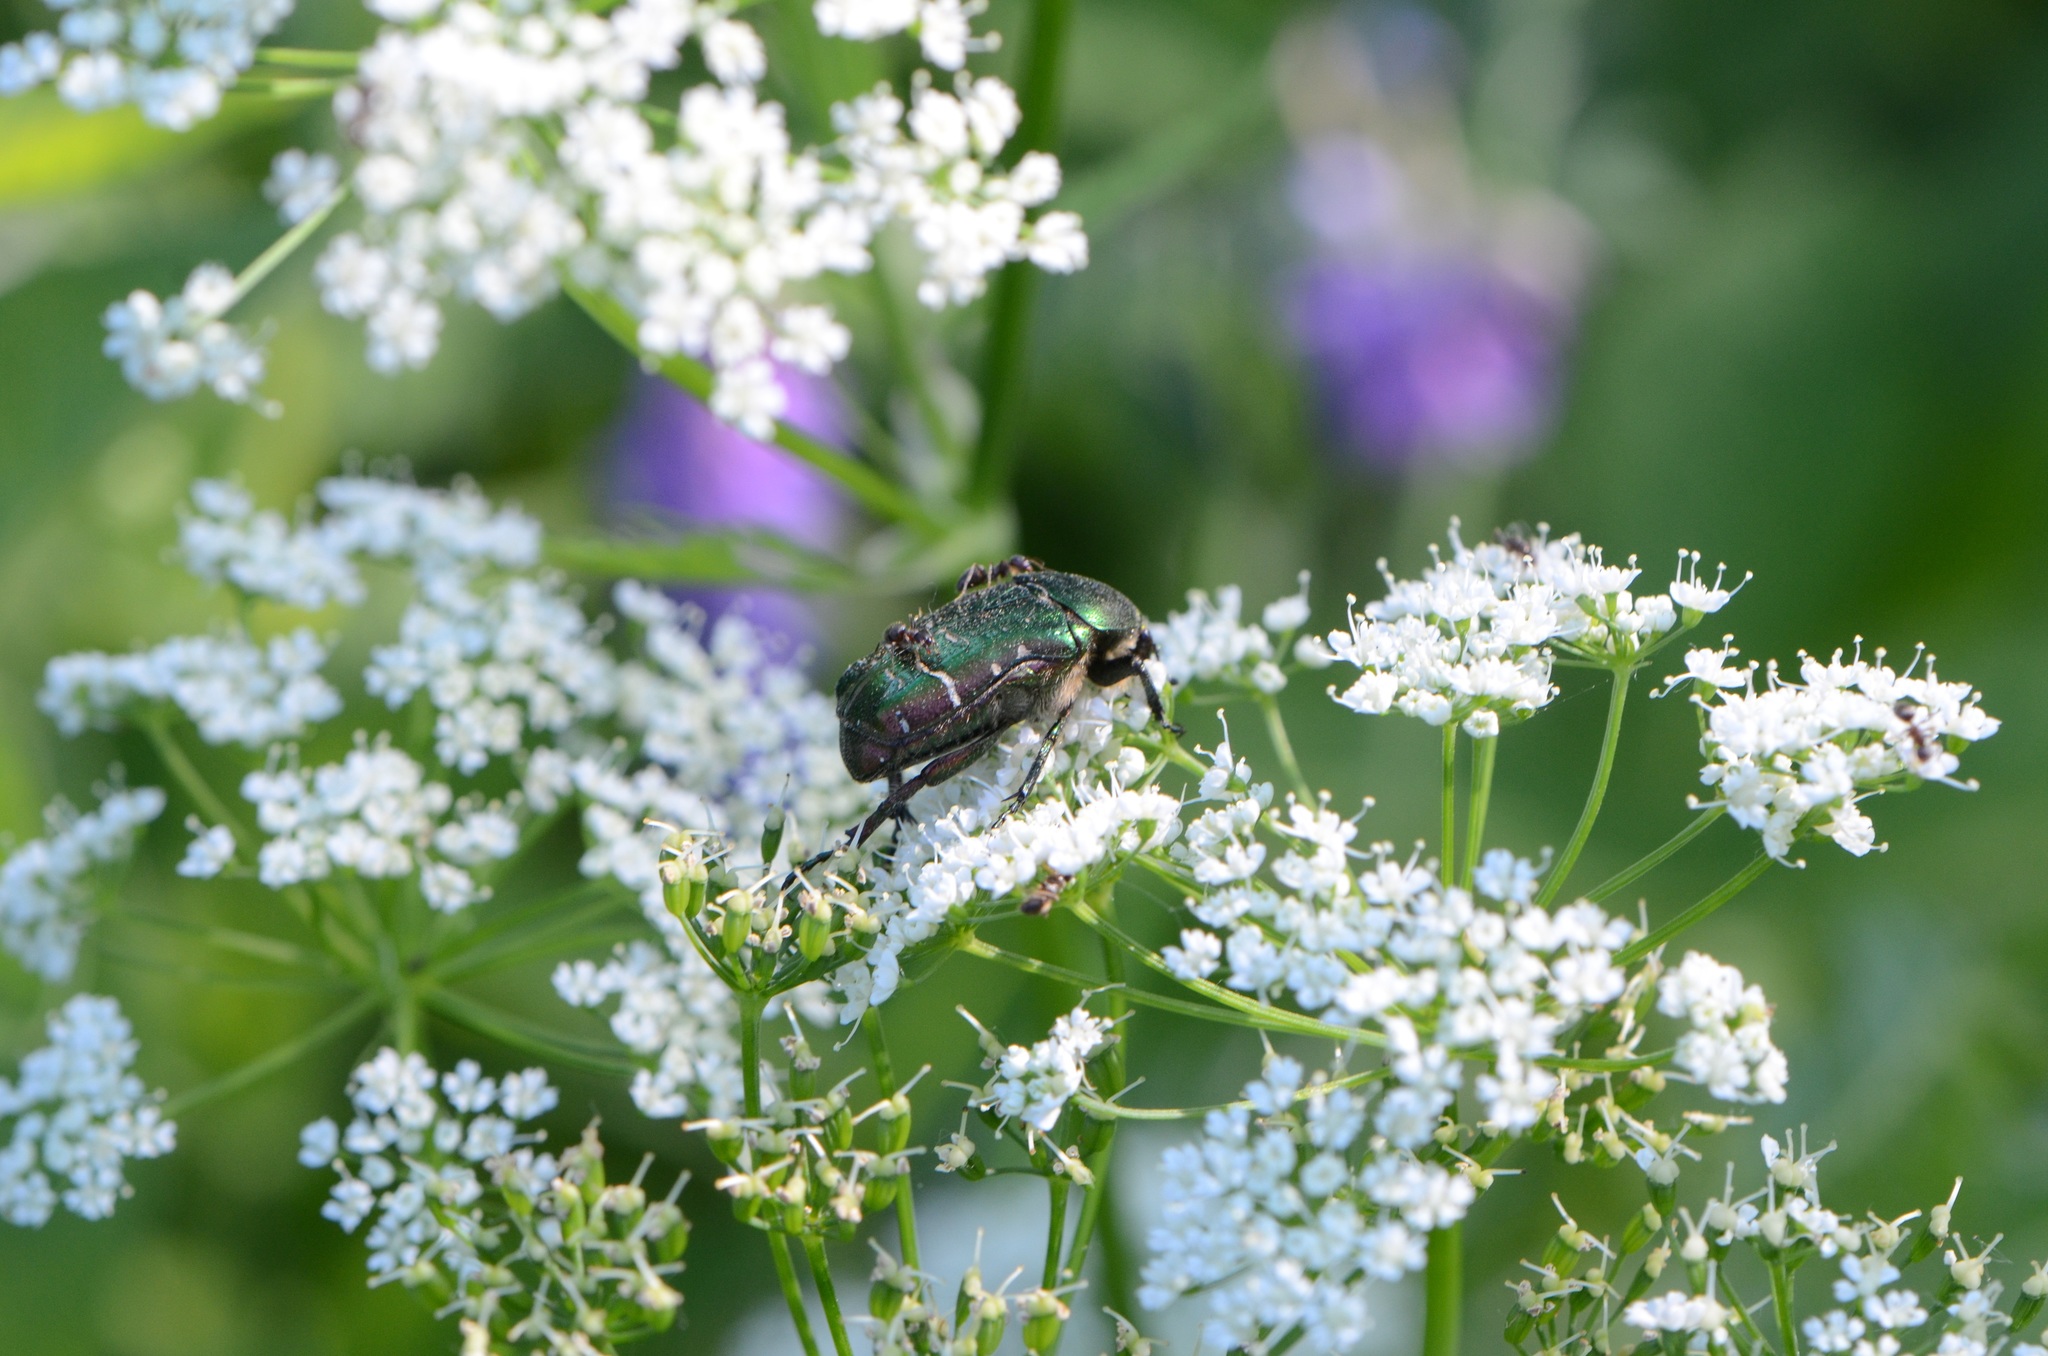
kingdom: Animalia
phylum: Arthropoda
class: Insecta
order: Coleoptera
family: Scarabaeidae
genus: Cetonia
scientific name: Cetonia aurata
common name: Rose chafer
